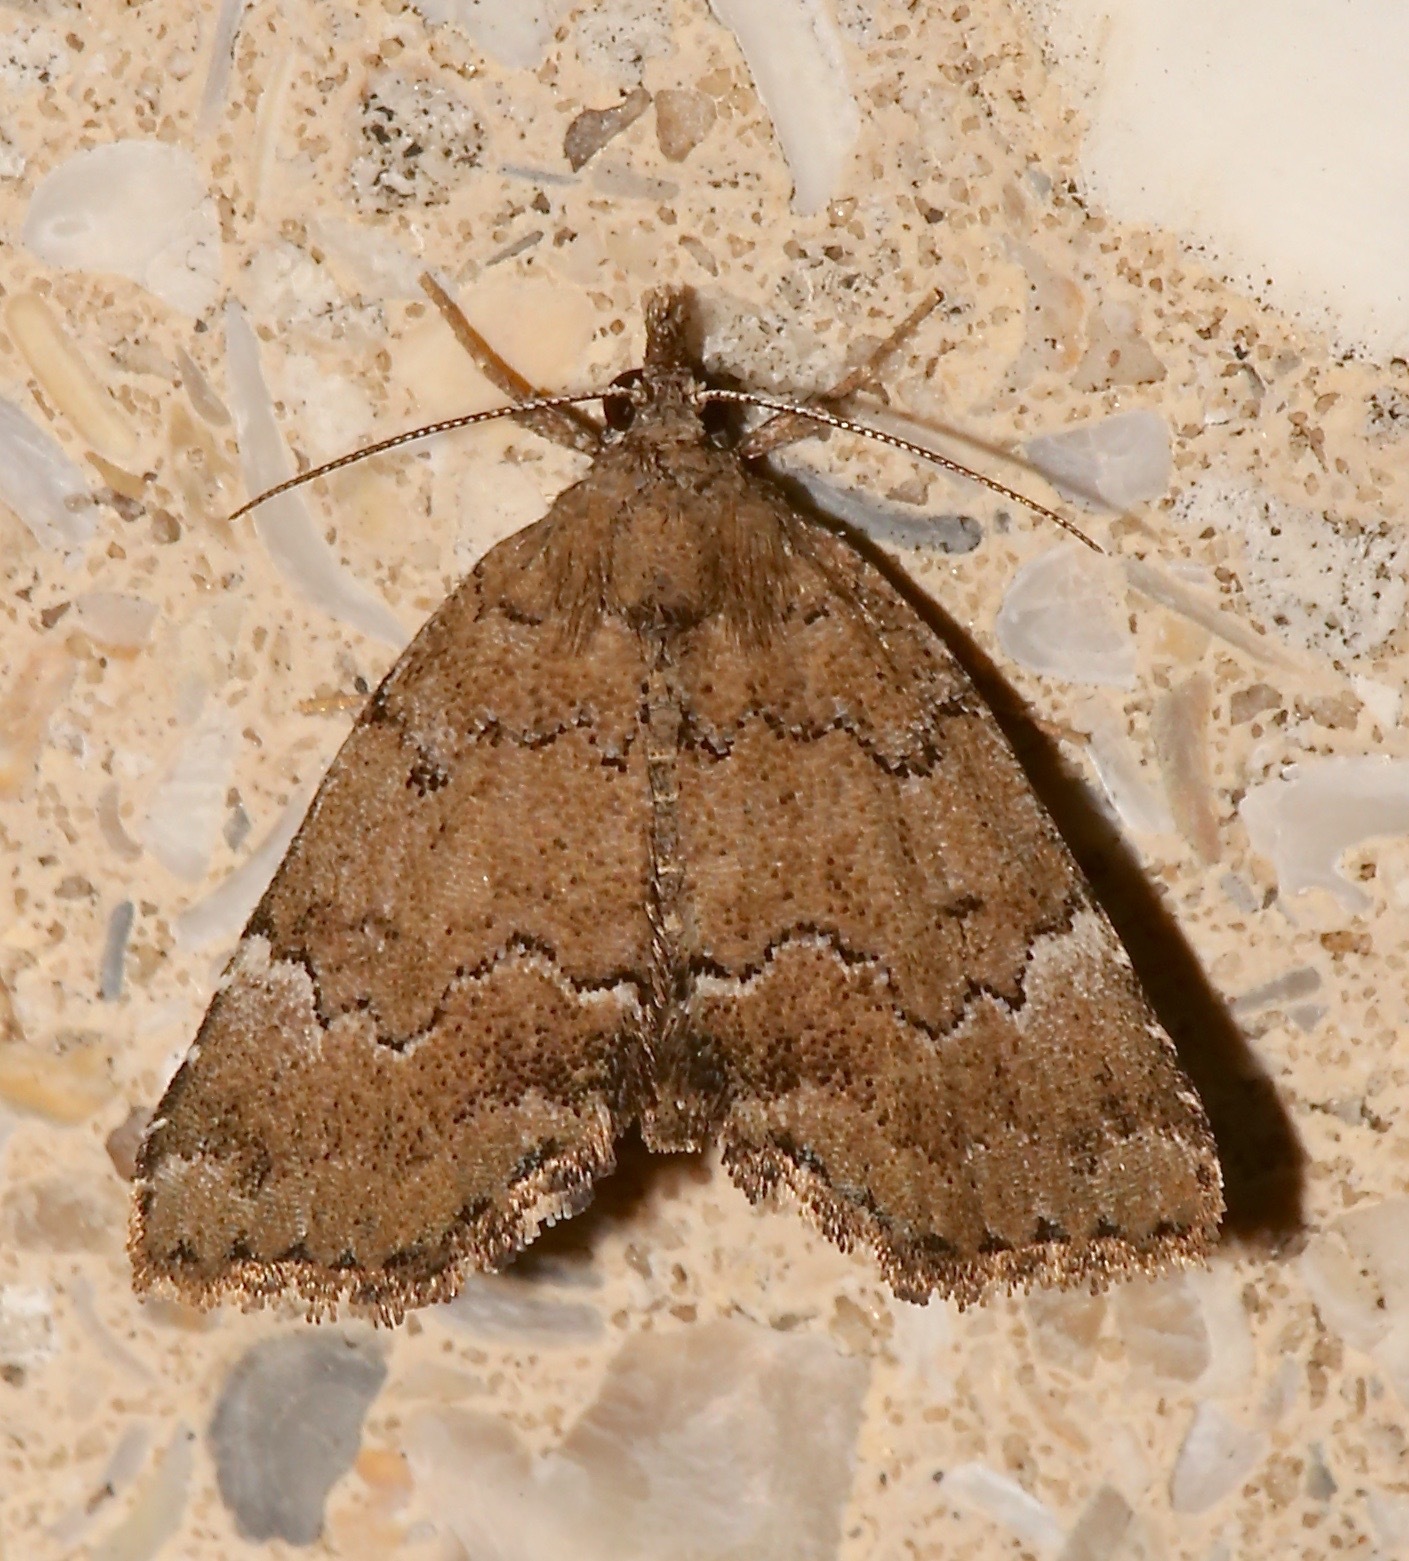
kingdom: Animalia
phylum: Arthropoda
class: Insecta
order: Lepidoptera
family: Erebidae
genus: Cutina
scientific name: Cutina aluticolor
